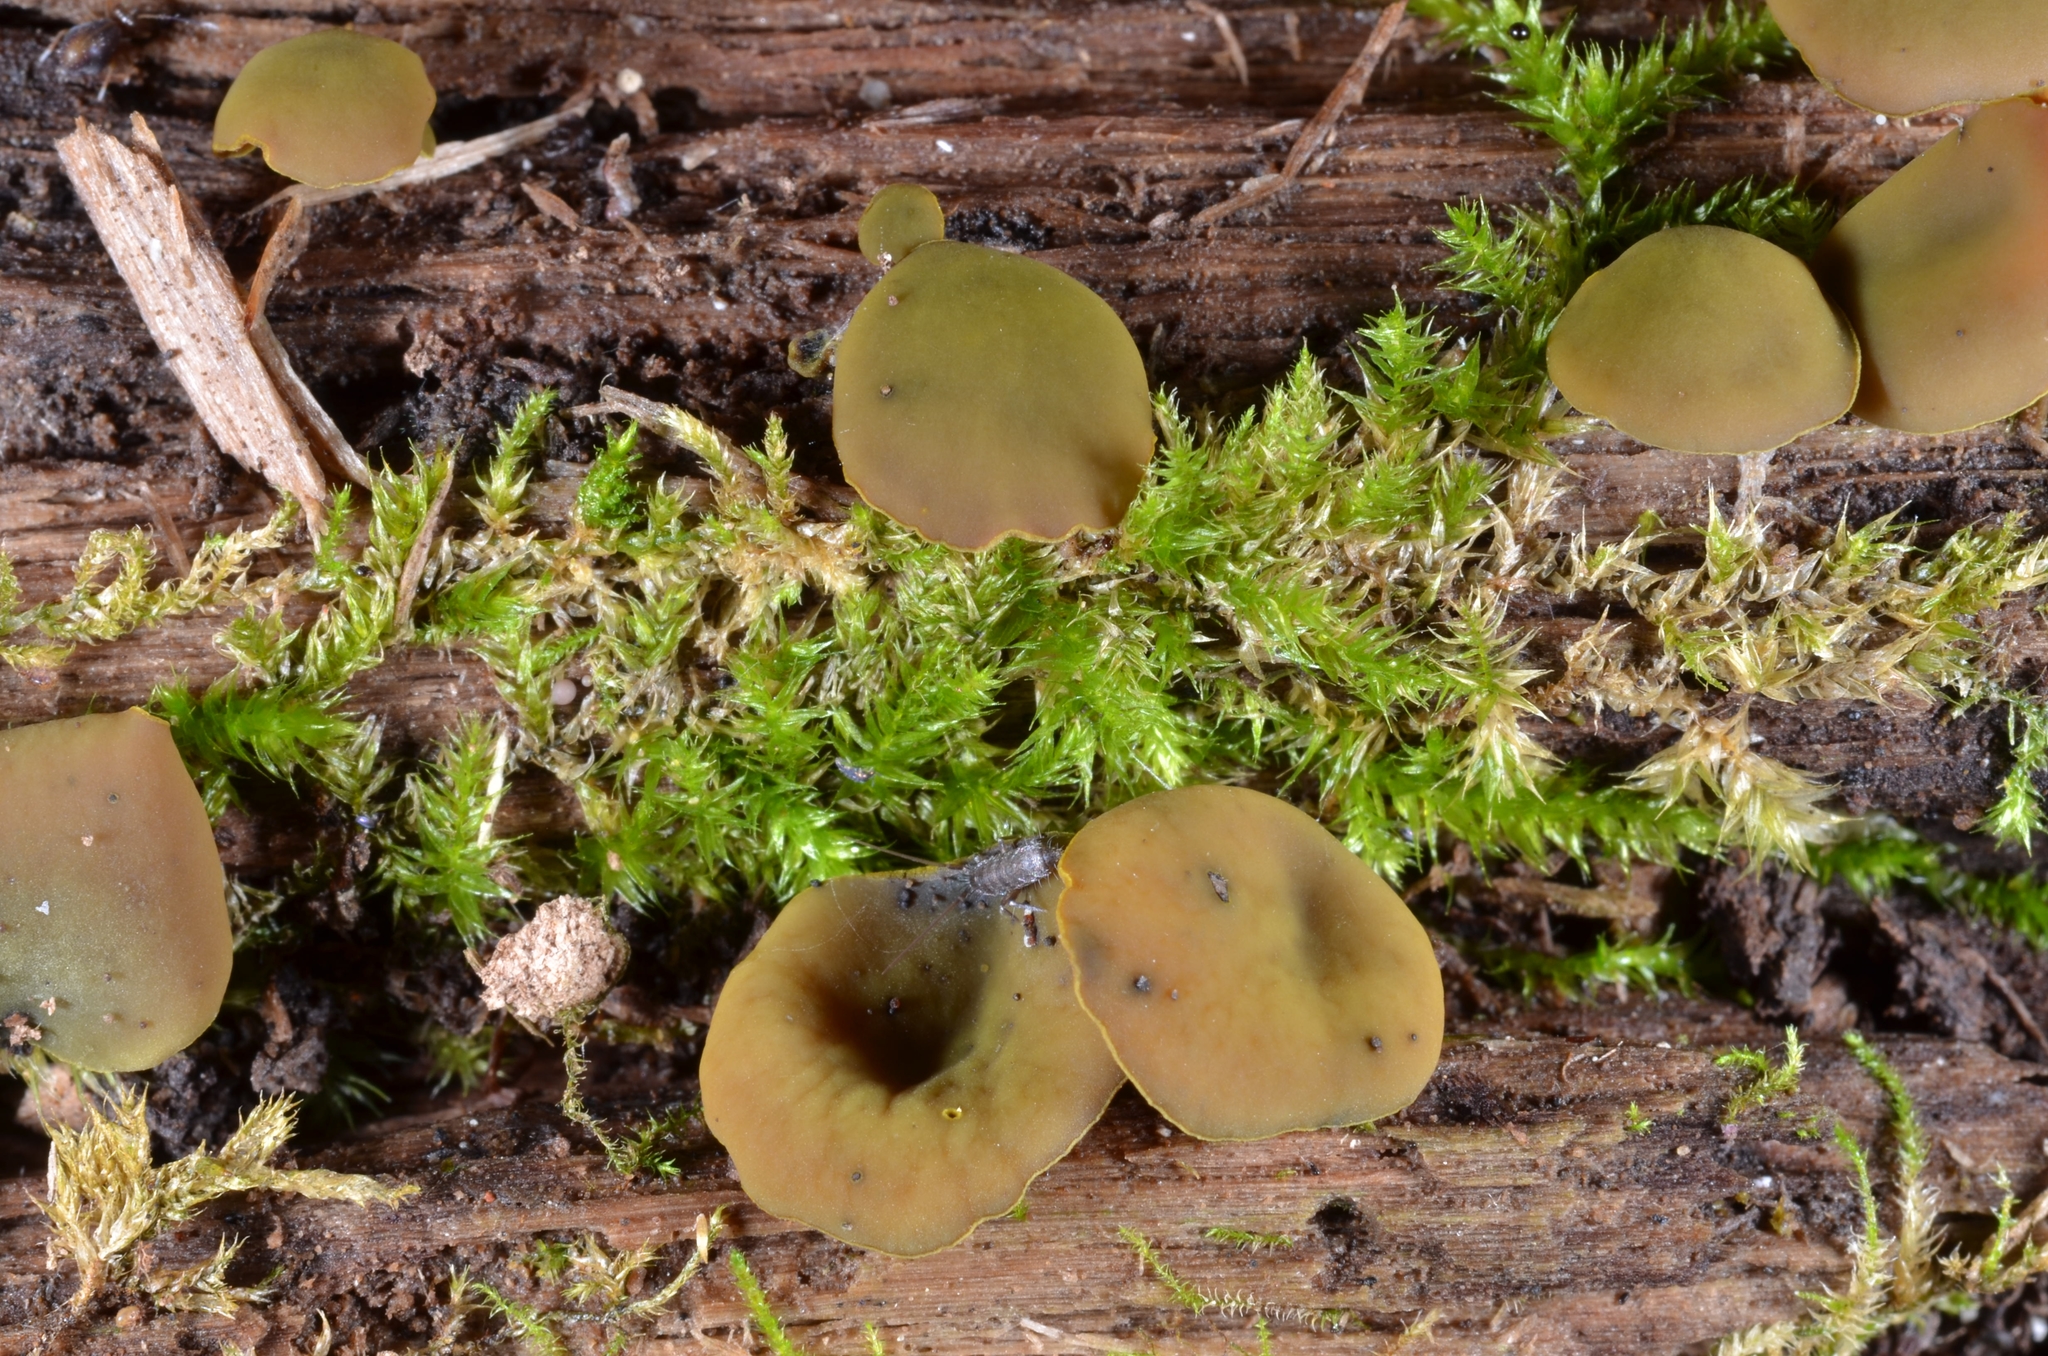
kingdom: Fungi
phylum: Ascomycota
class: Leotiomycetes
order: Helotiales
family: Cenangiaceae
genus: Chlorencoelia
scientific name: Chlorencoelia versiformis
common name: Flea's ear
